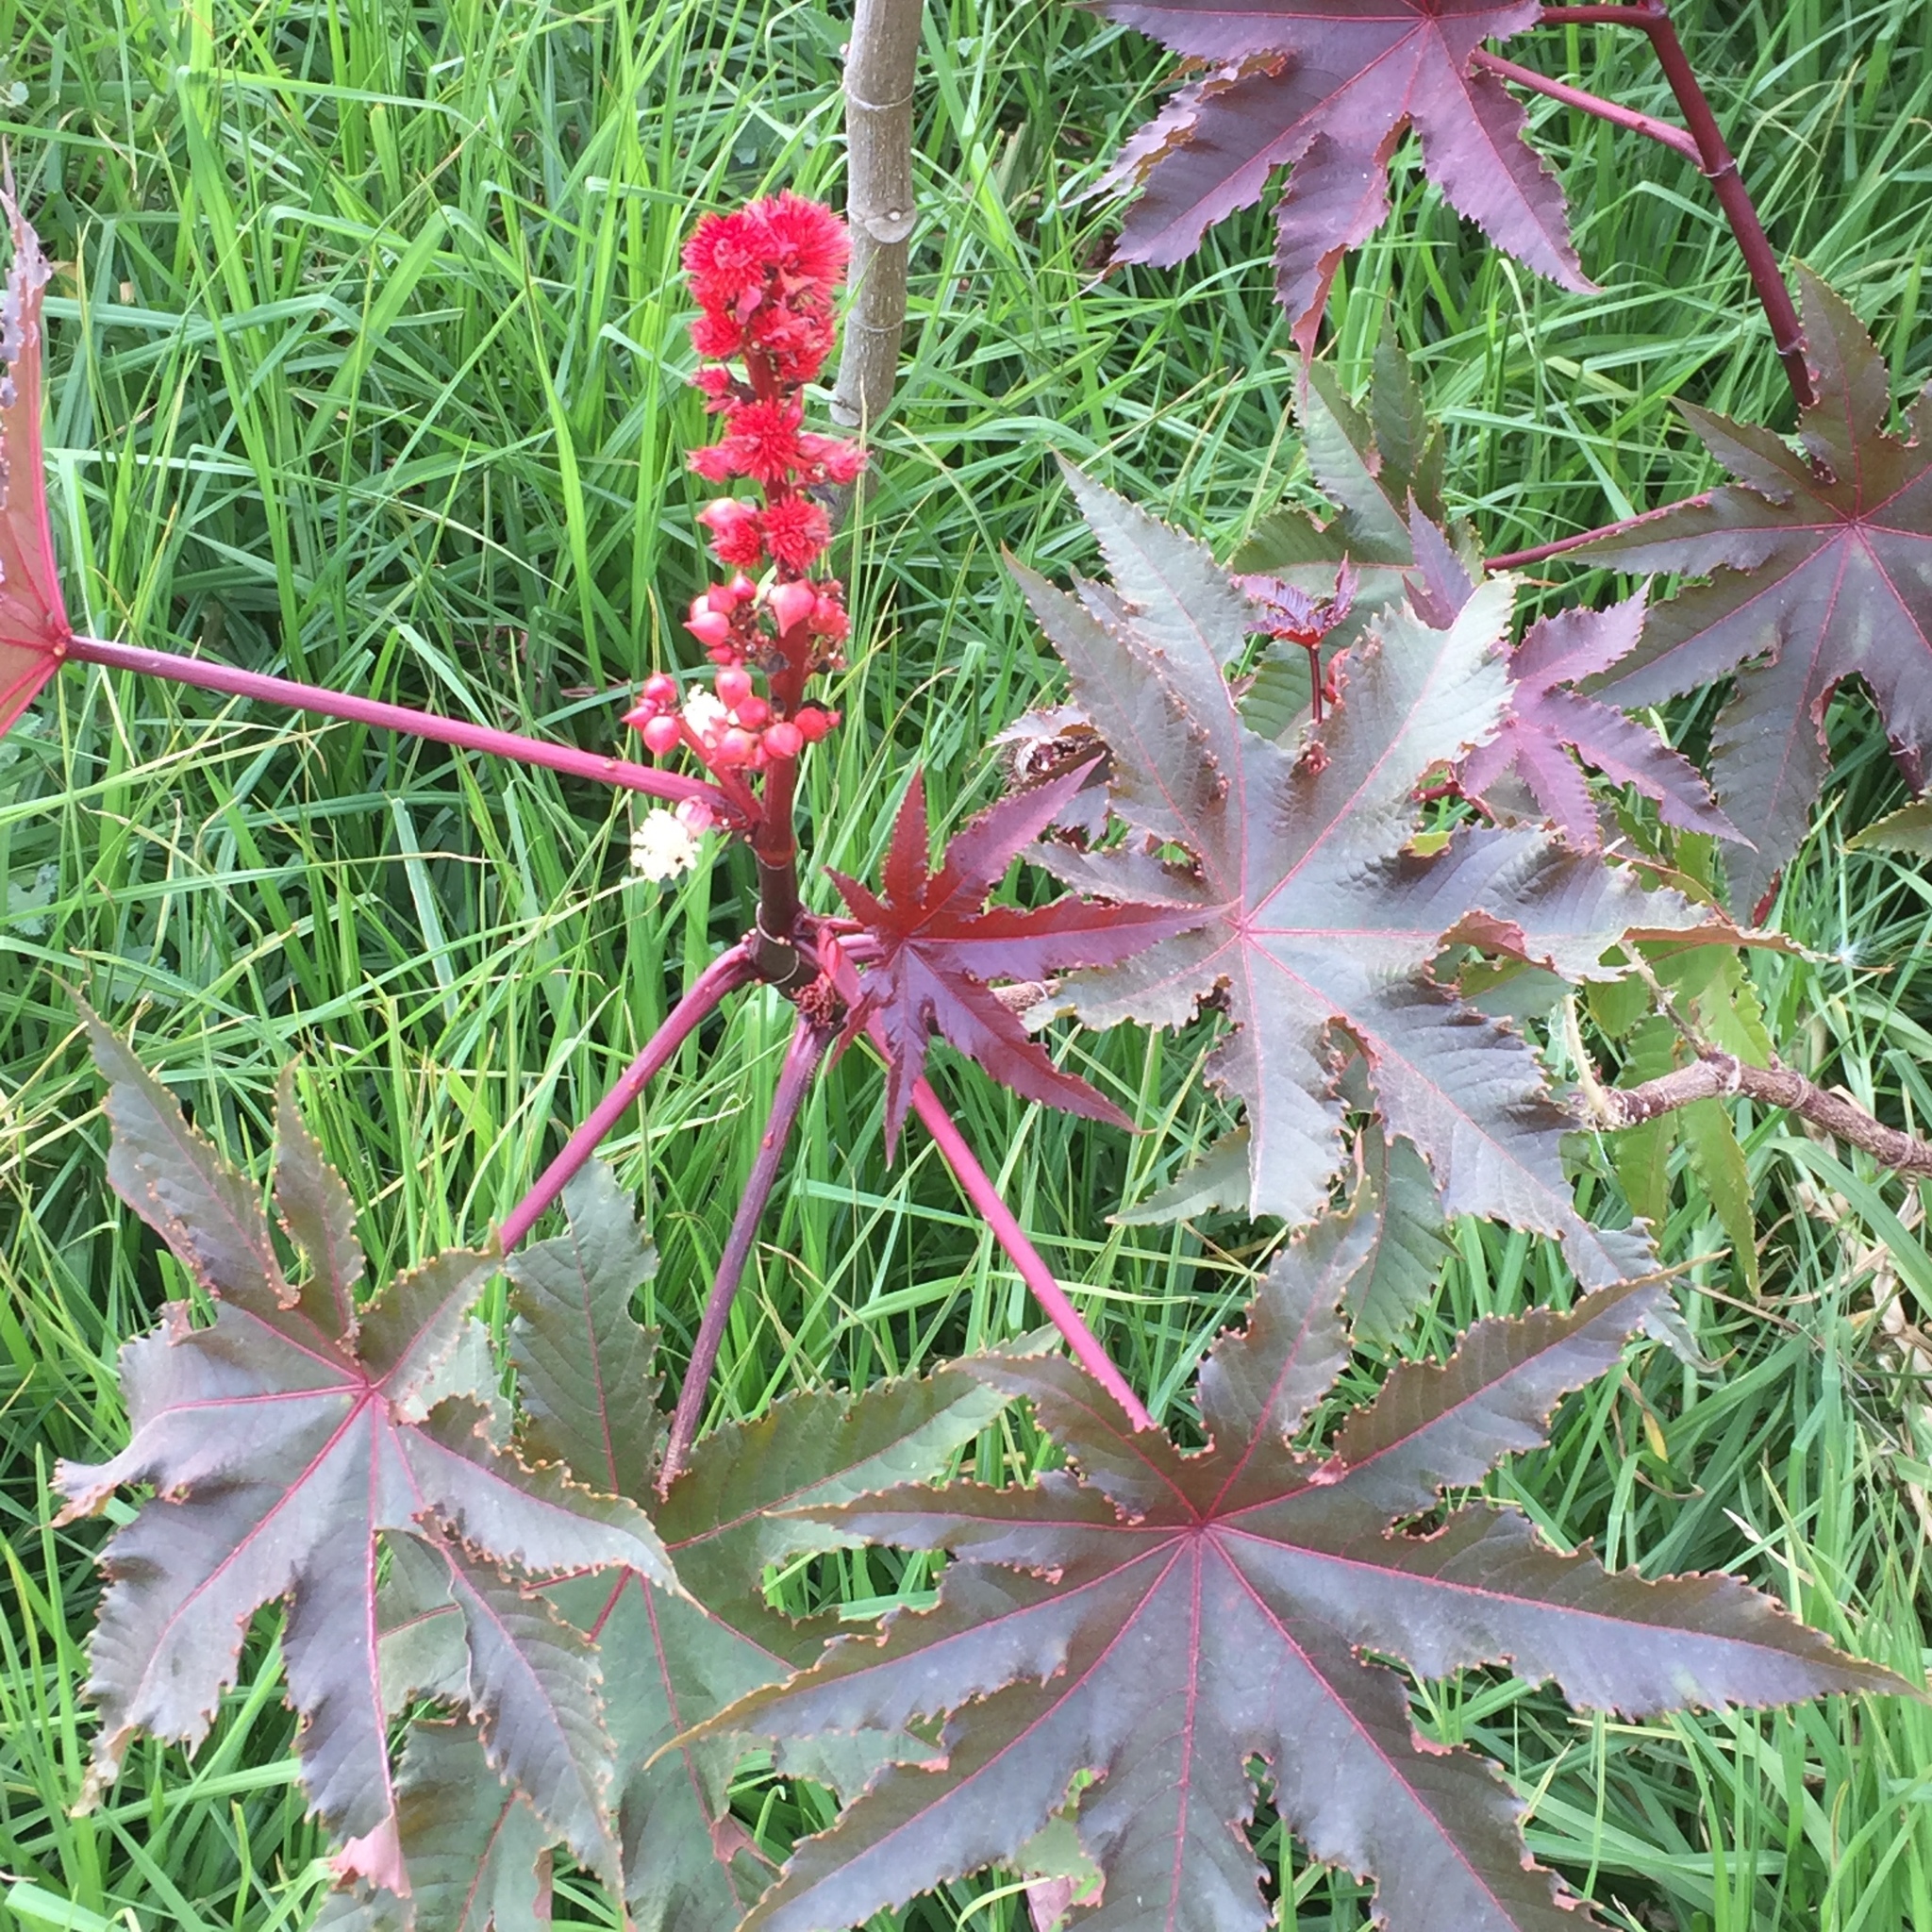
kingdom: Plantae
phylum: Tracheophyta
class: Magnoliopsida
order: Malpighiales
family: Euphorbiaceae
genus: Ricinus
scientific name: Ricinus communis
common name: Castor-oil-plant
